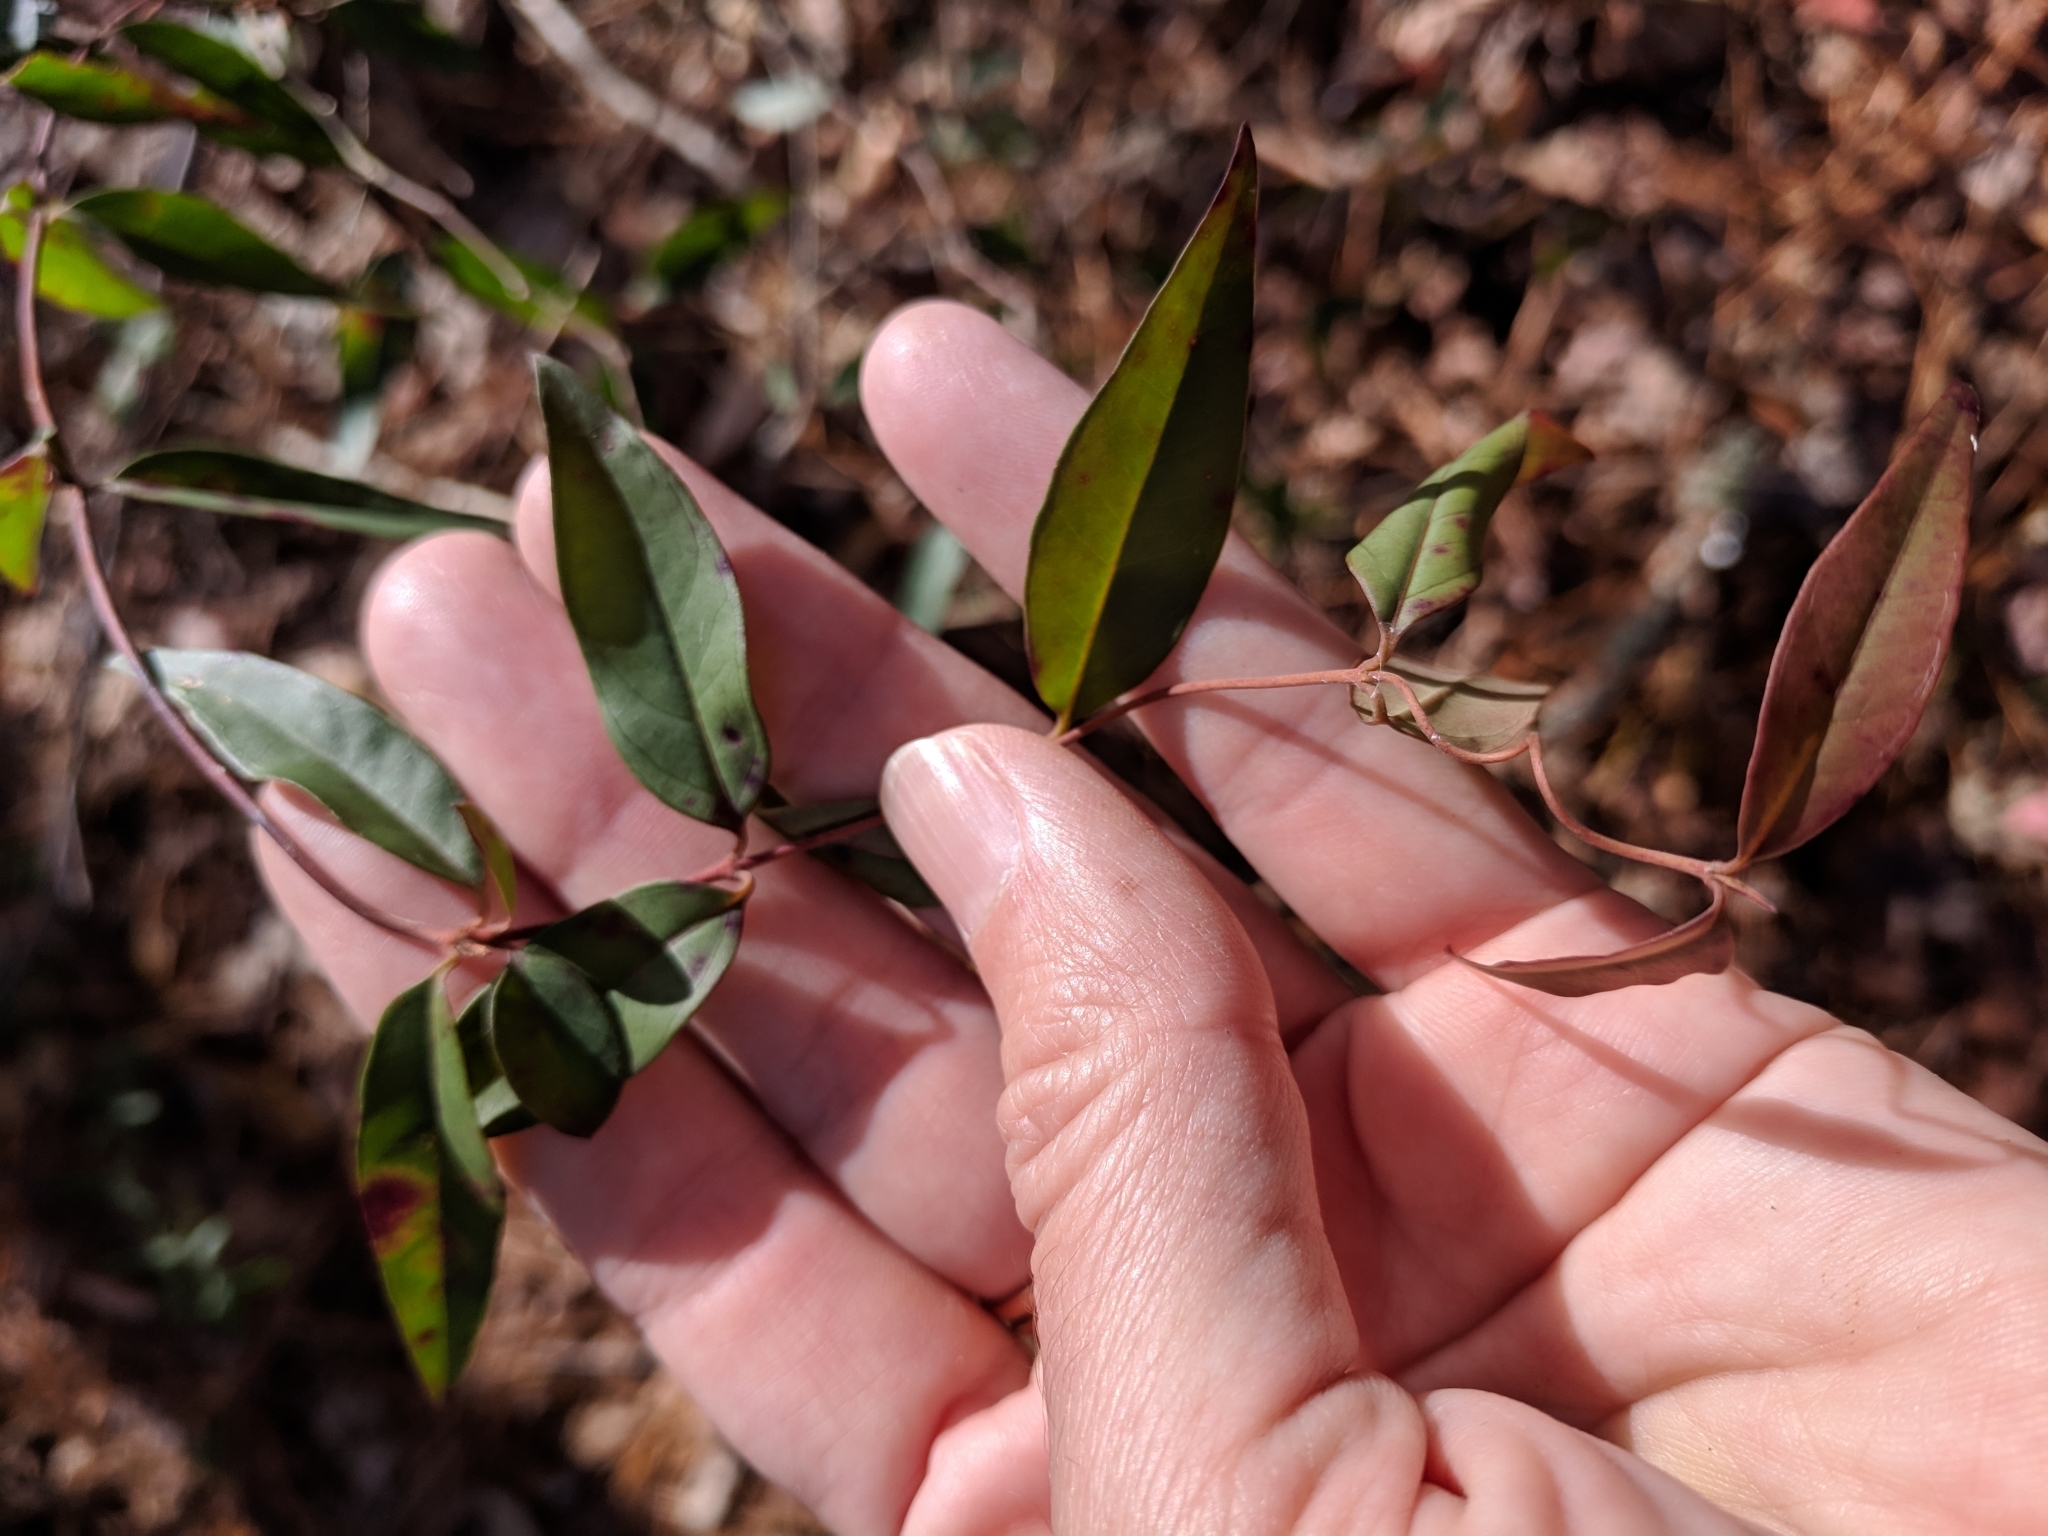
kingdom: Plantae
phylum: Tracheophyta
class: Magnoliopsida
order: Gentianales
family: Gelsemiaceae
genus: Gelsemium
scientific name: Gelsemium sempervirens
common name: Carolina-jasmine
